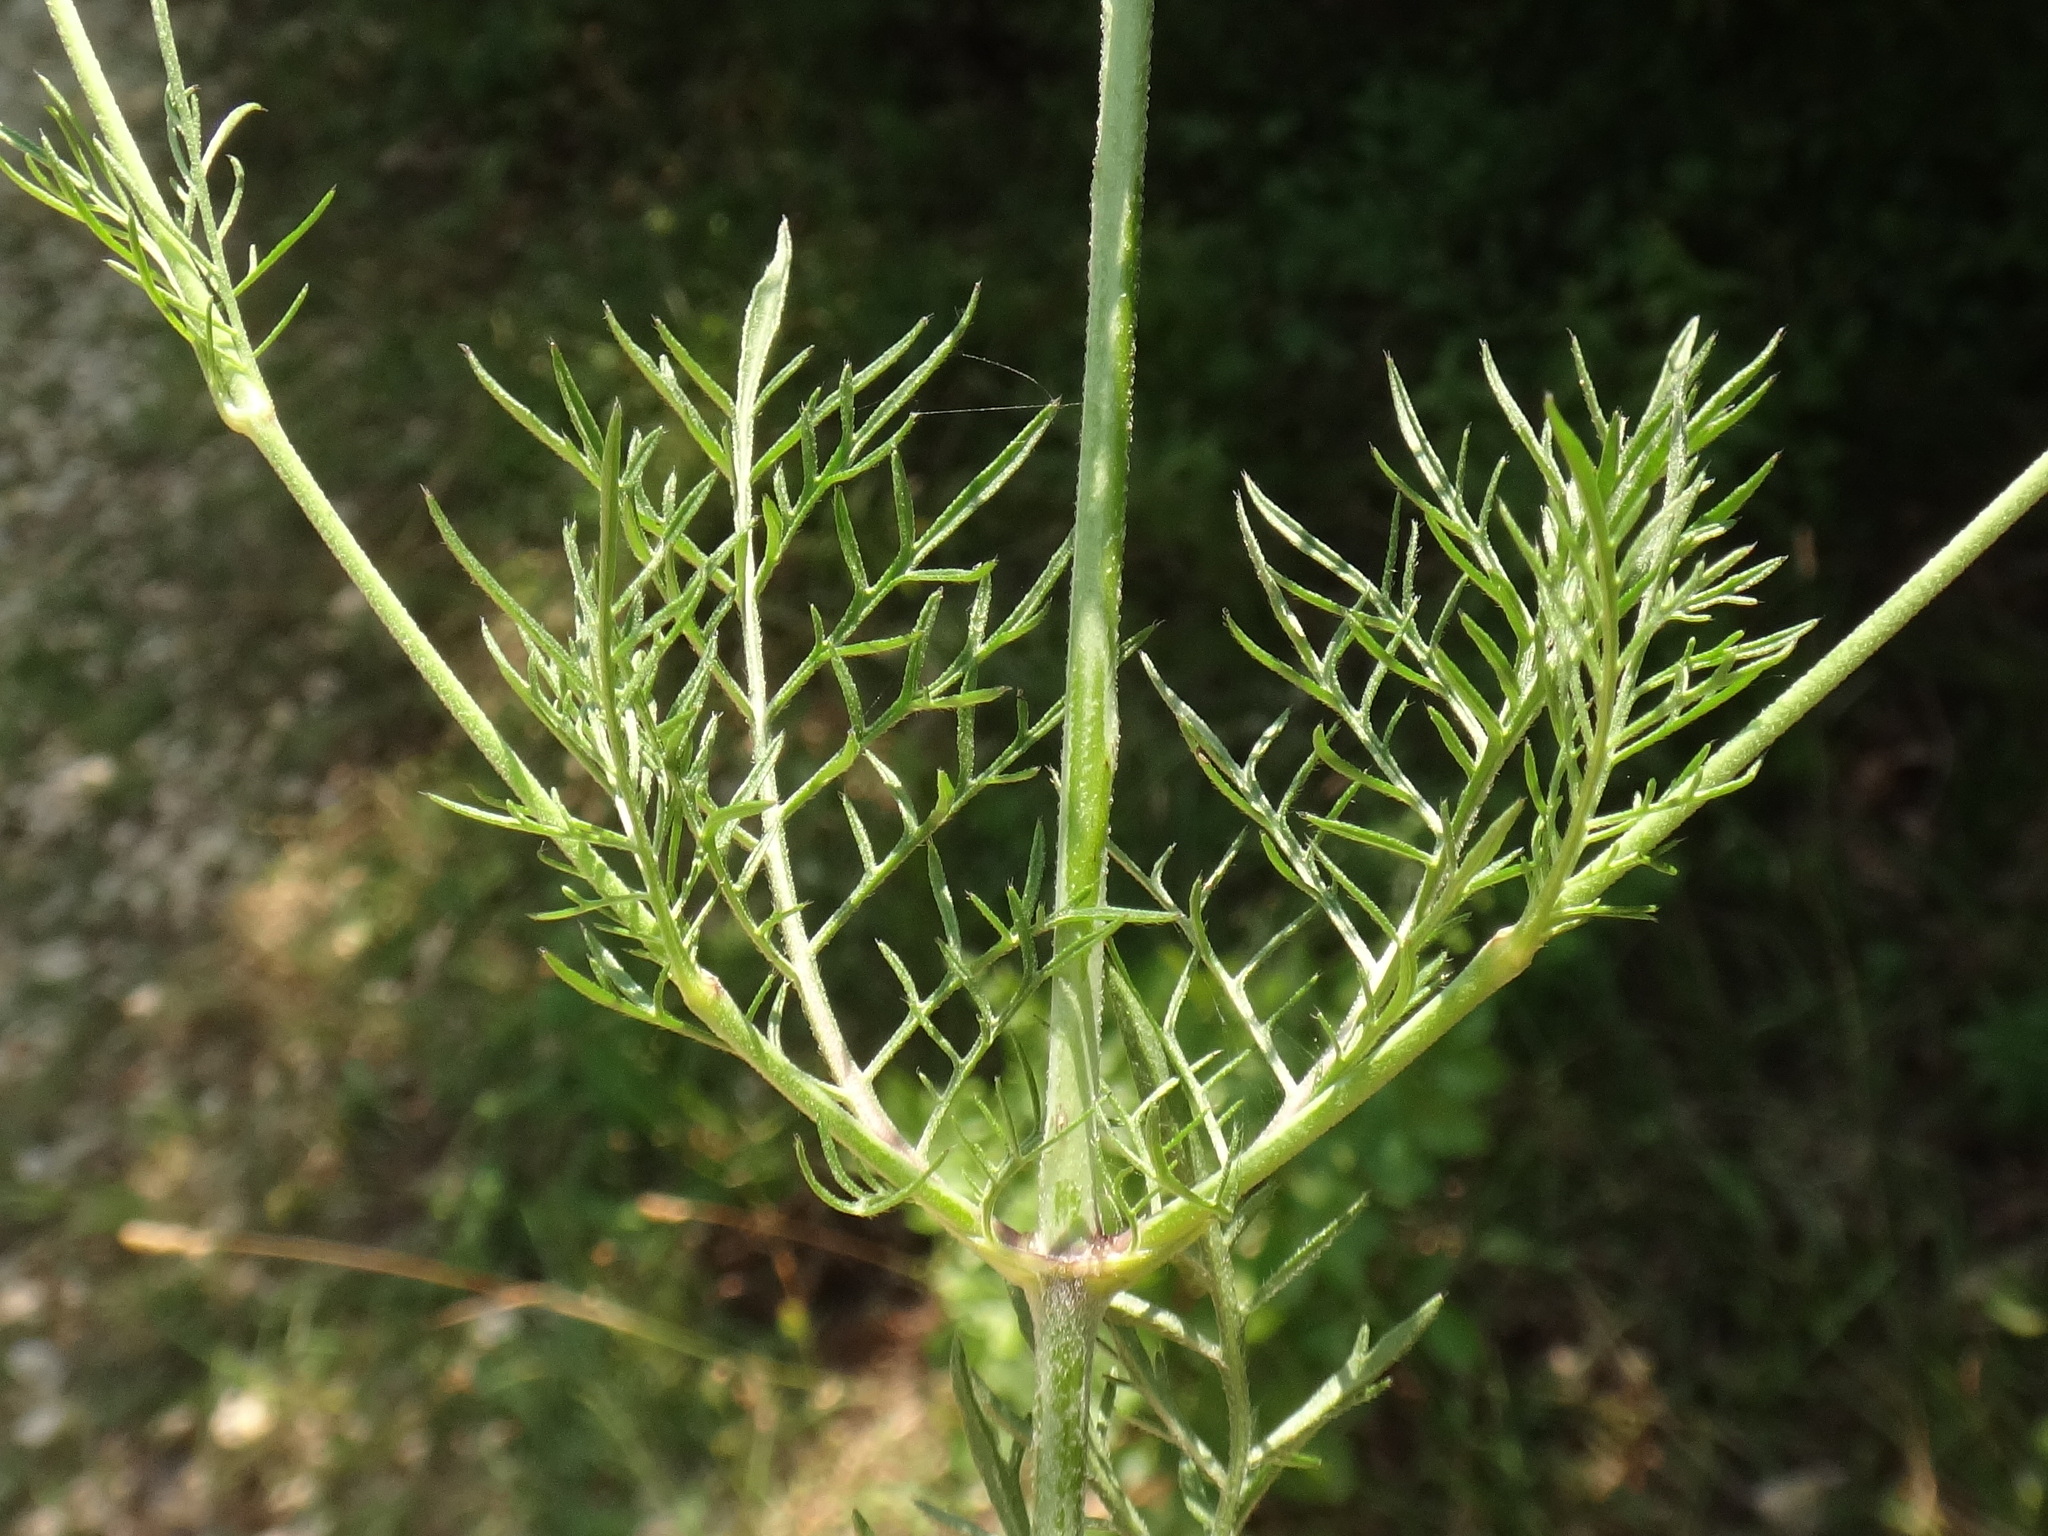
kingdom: Plantae
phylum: Tracheophyta
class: Magnoliopsida
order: Dipsacales
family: Caprifoliaceae
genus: Scabiosa
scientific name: Scabiosa triandra
